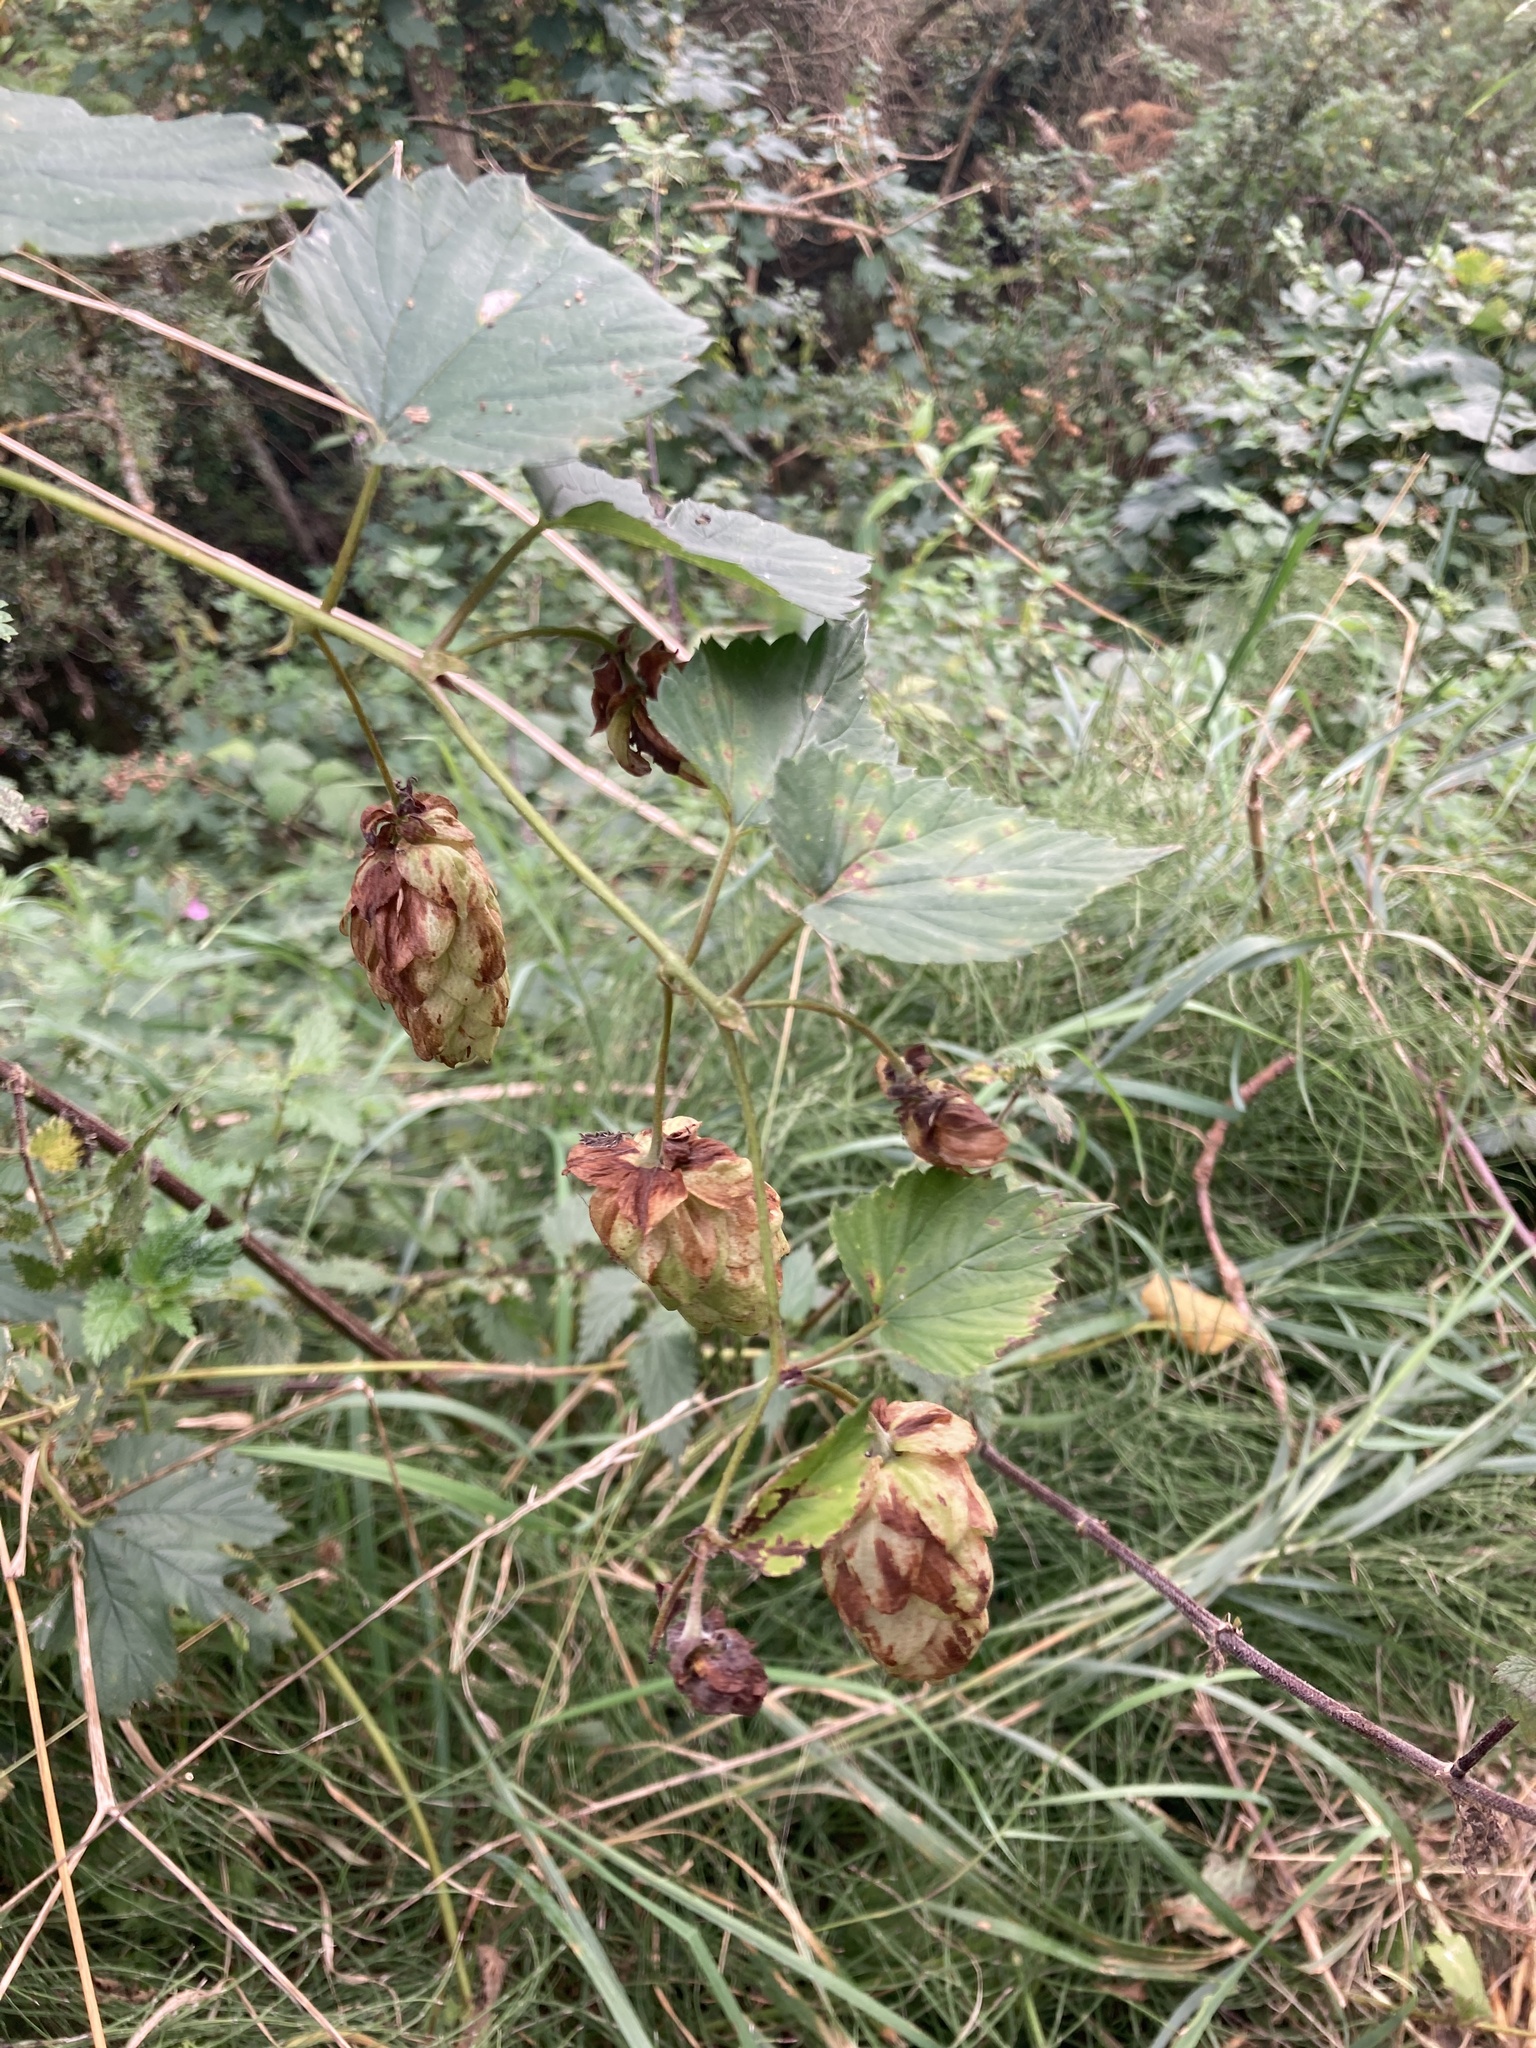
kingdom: Plantae
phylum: Tracheophyta
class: Magnoliopsida
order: Rosales
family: Cannabaceae
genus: Humulus
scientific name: Humulus lupulus
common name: Hop
